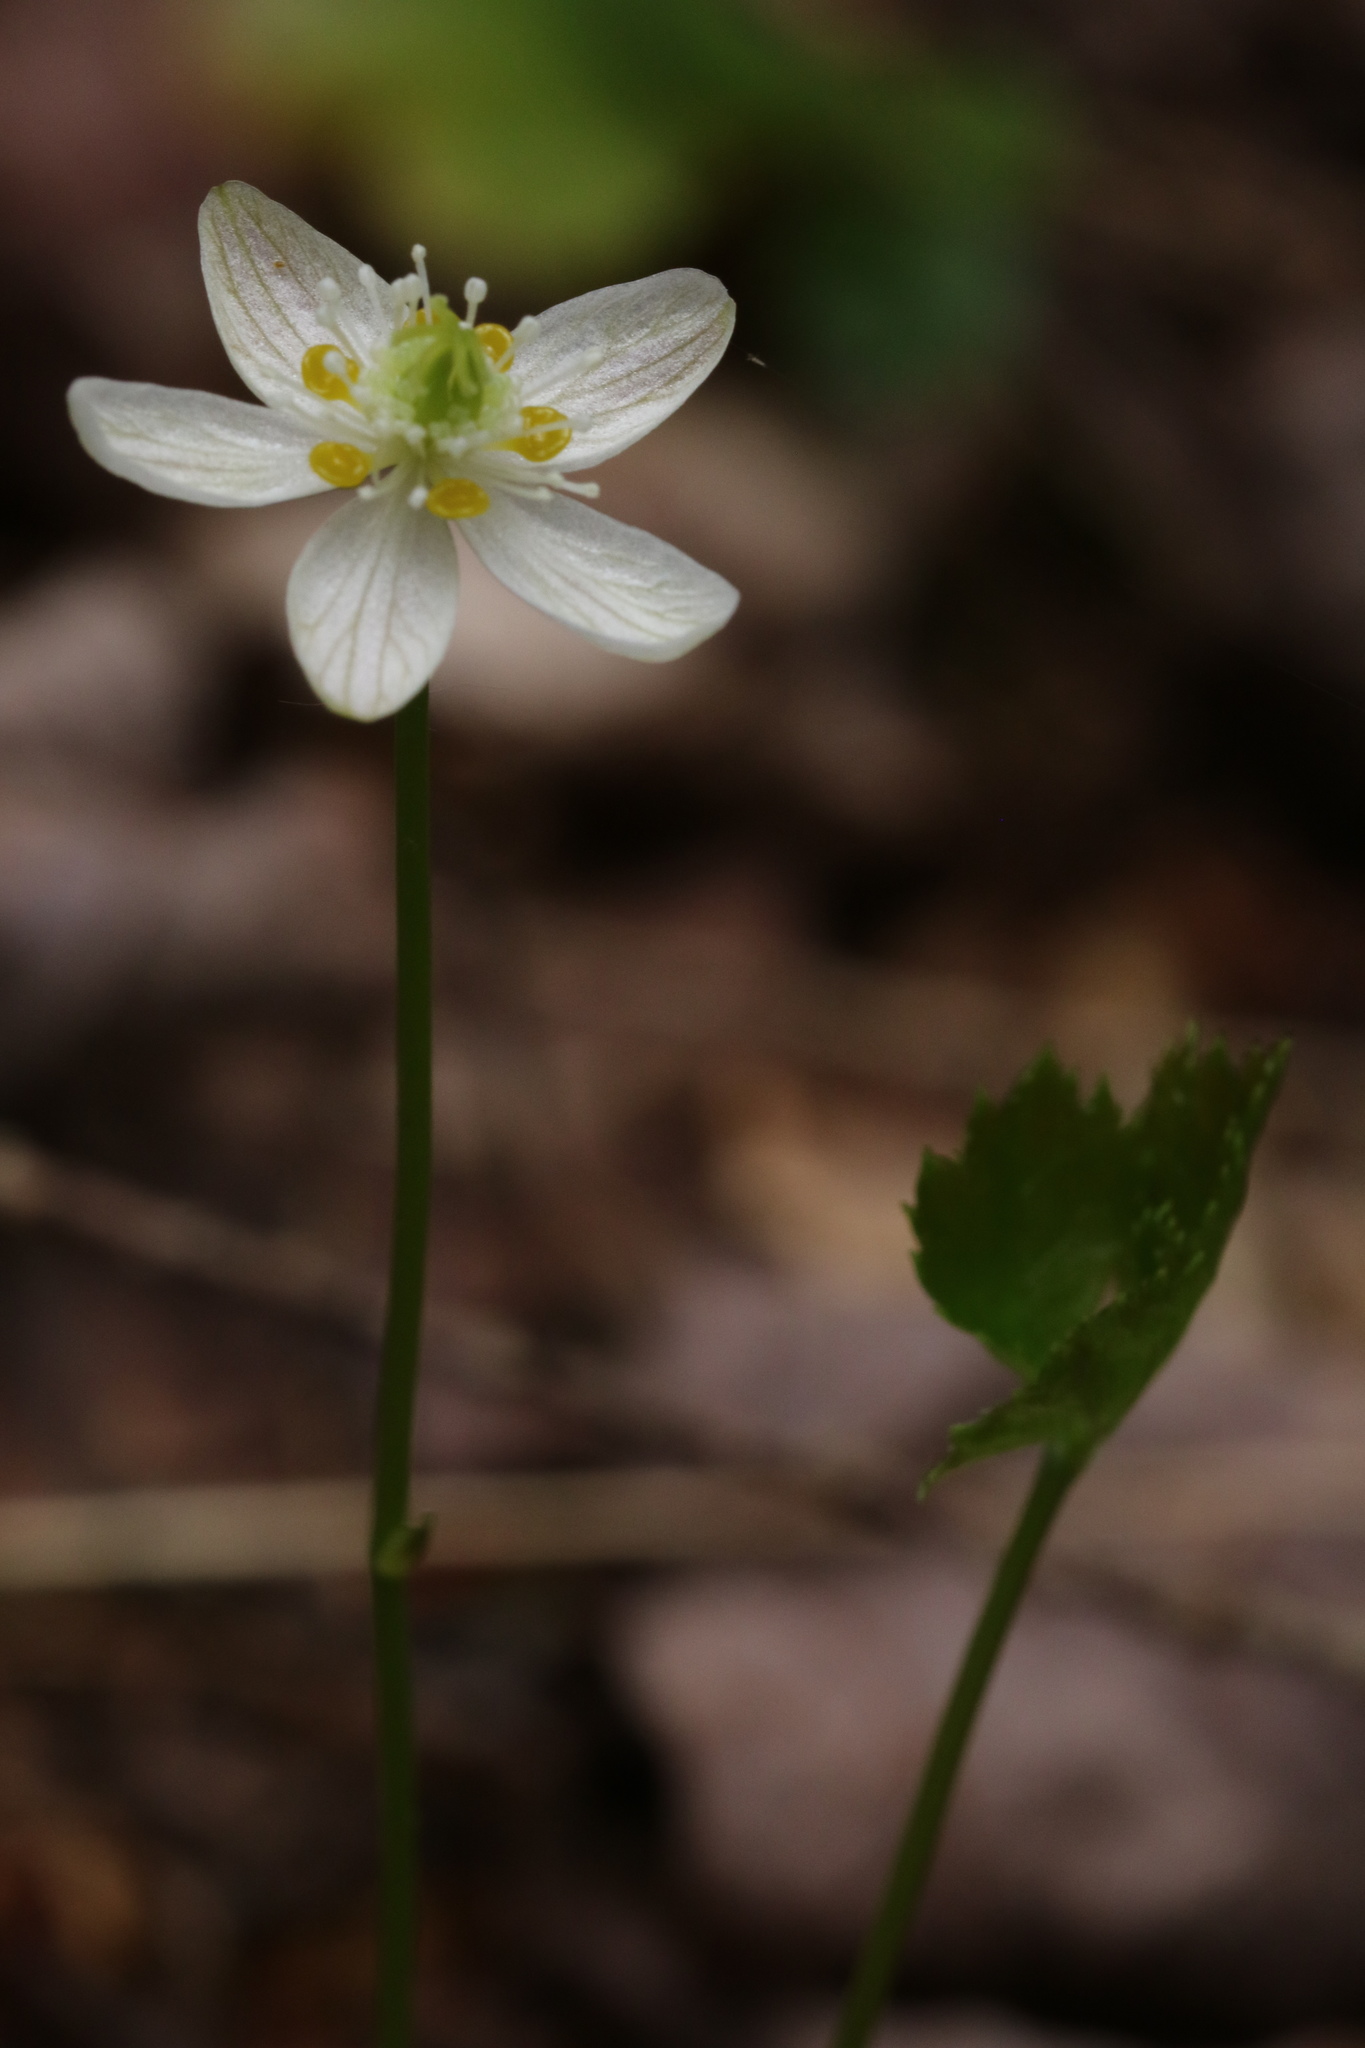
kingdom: Plantae
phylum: Tracheophyta
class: Magnoliopsida
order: Ranunculales
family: Ranunculaceae
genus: Coptis
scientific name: Coptis trifolia
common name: Canker-root
